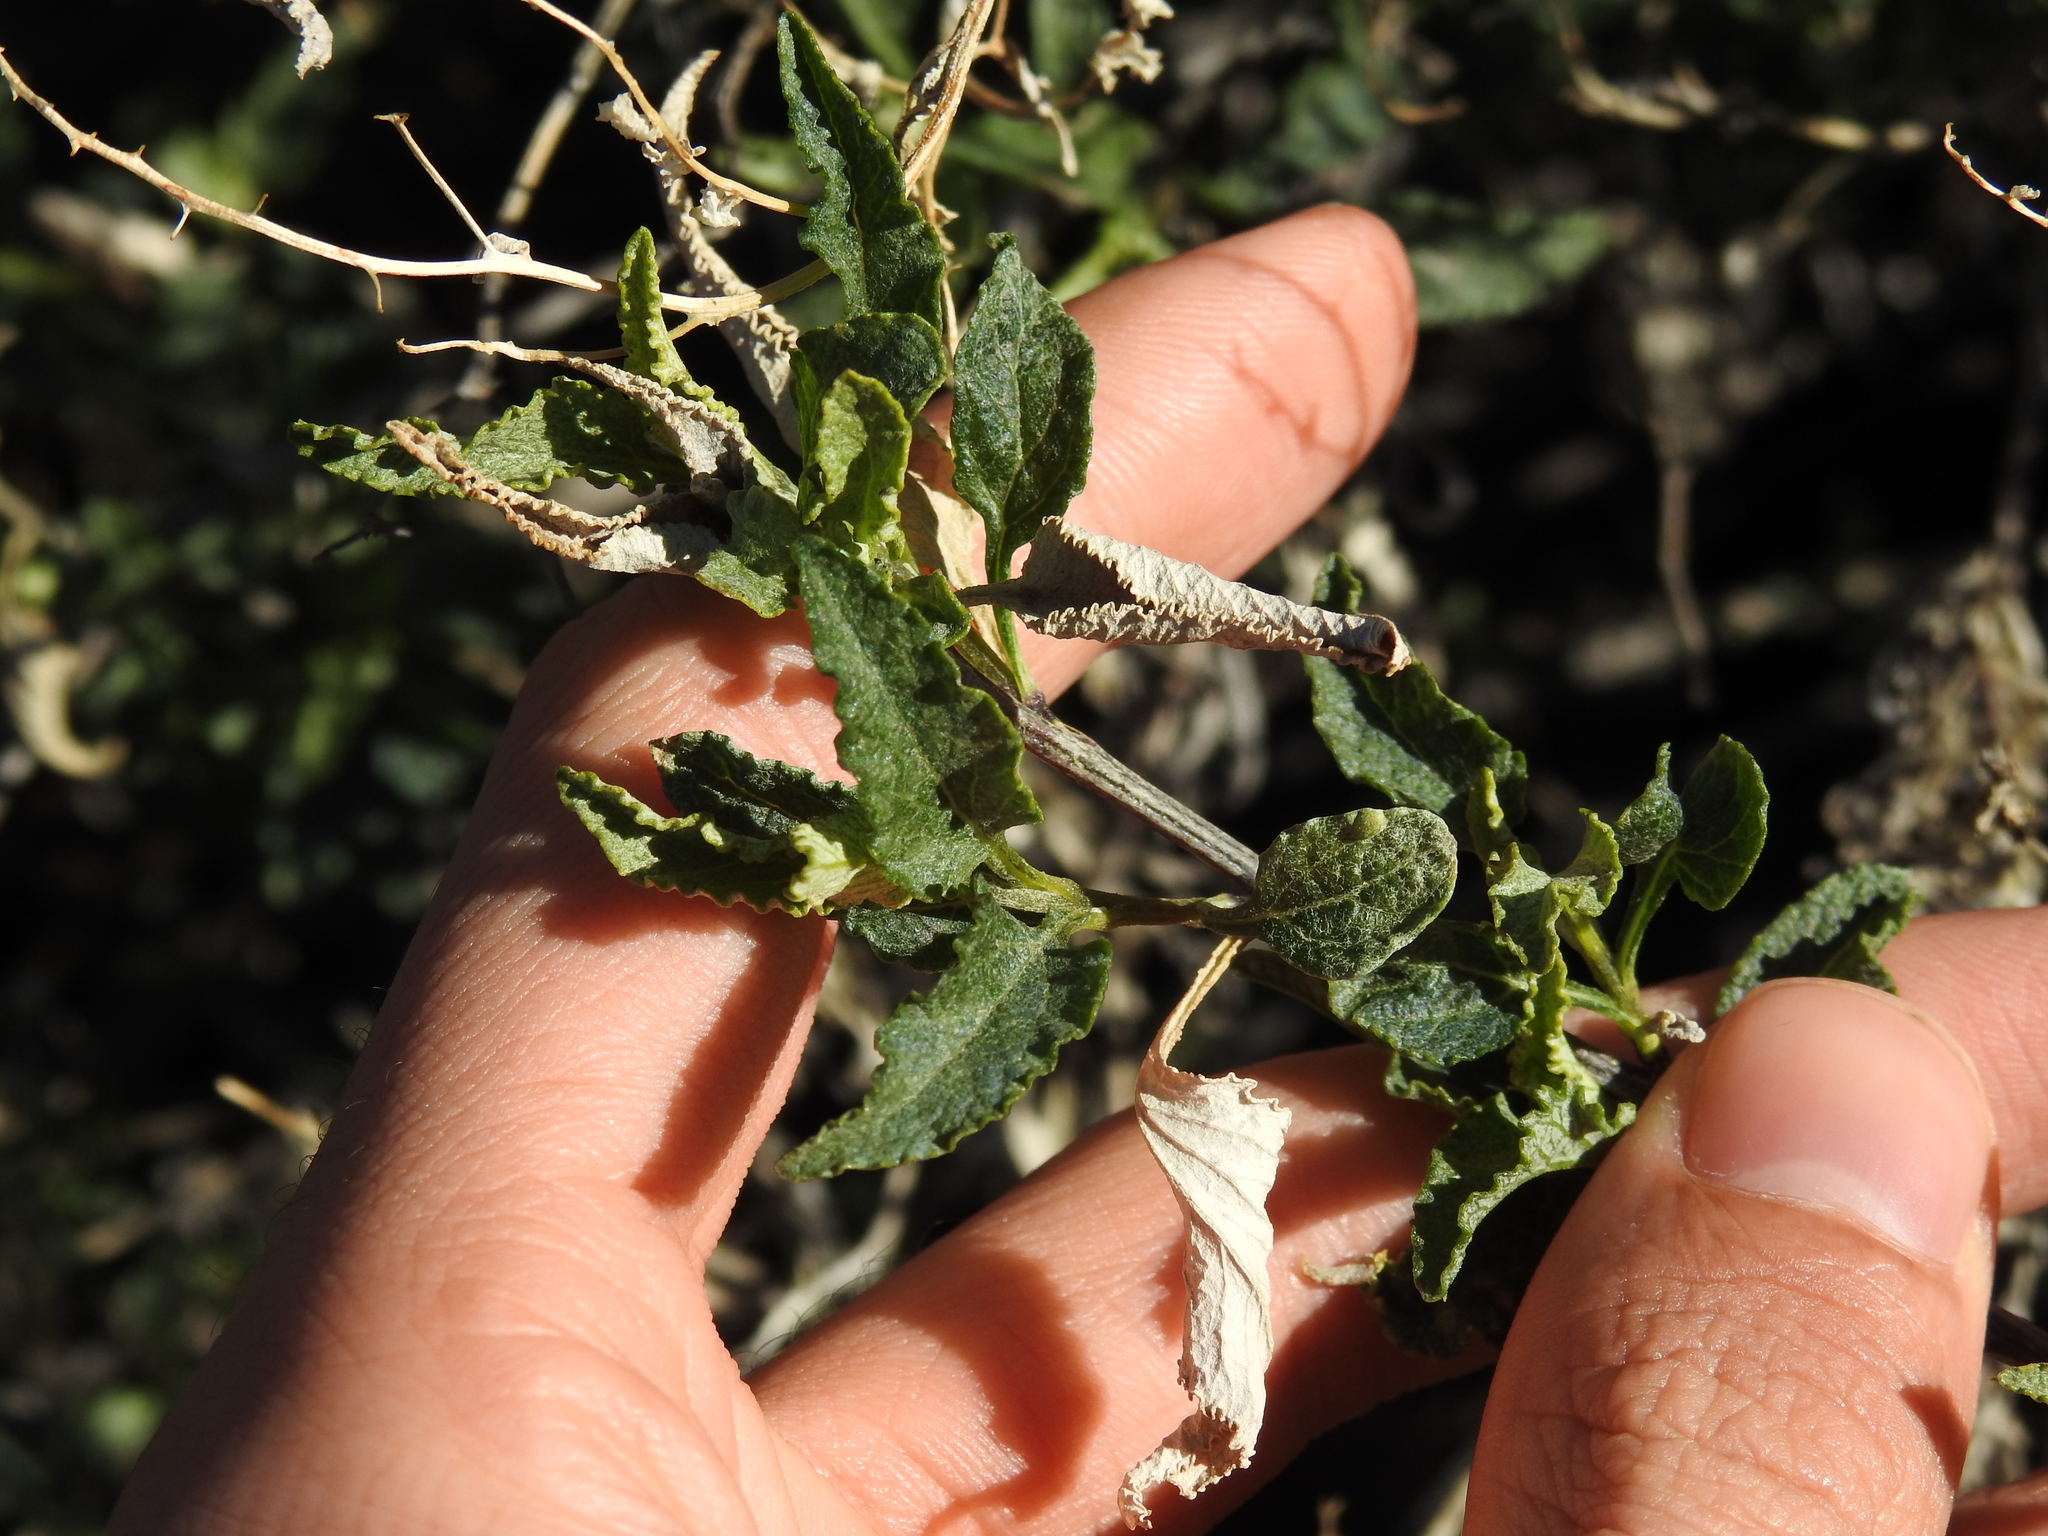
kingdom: Plantae
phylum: Tracheophyta
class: Magnoliopsida
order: Asterales
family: Asteraceae
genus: Ambrosia
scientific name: Ambrosia deltoidea
